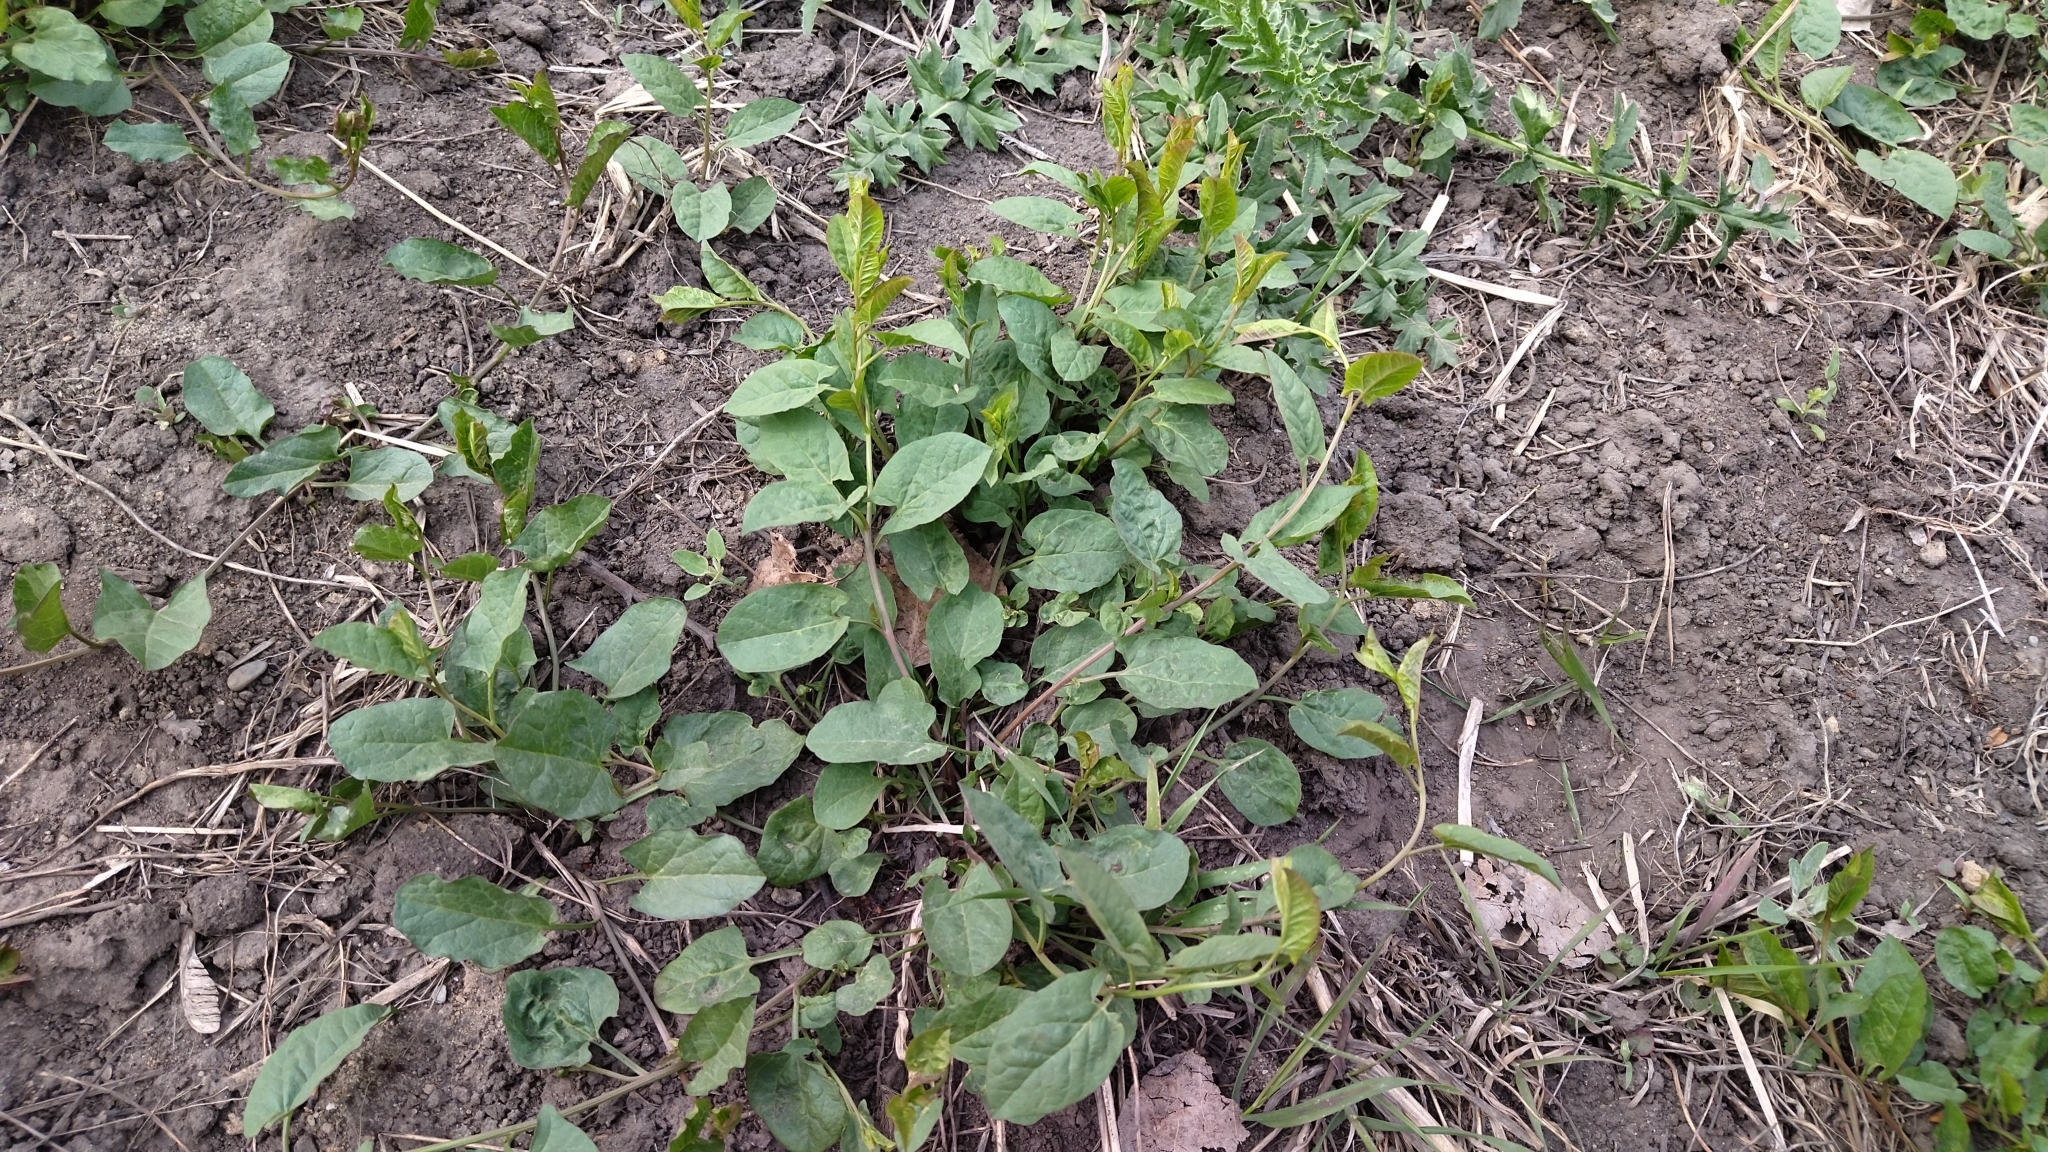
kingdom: Plantae
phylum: Tracheophyta
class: Magnoliopsida
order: Solanales
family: Convolvulaceae
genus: Convolvulus
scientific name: Convolvulus arvensis
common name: Field bindweed
